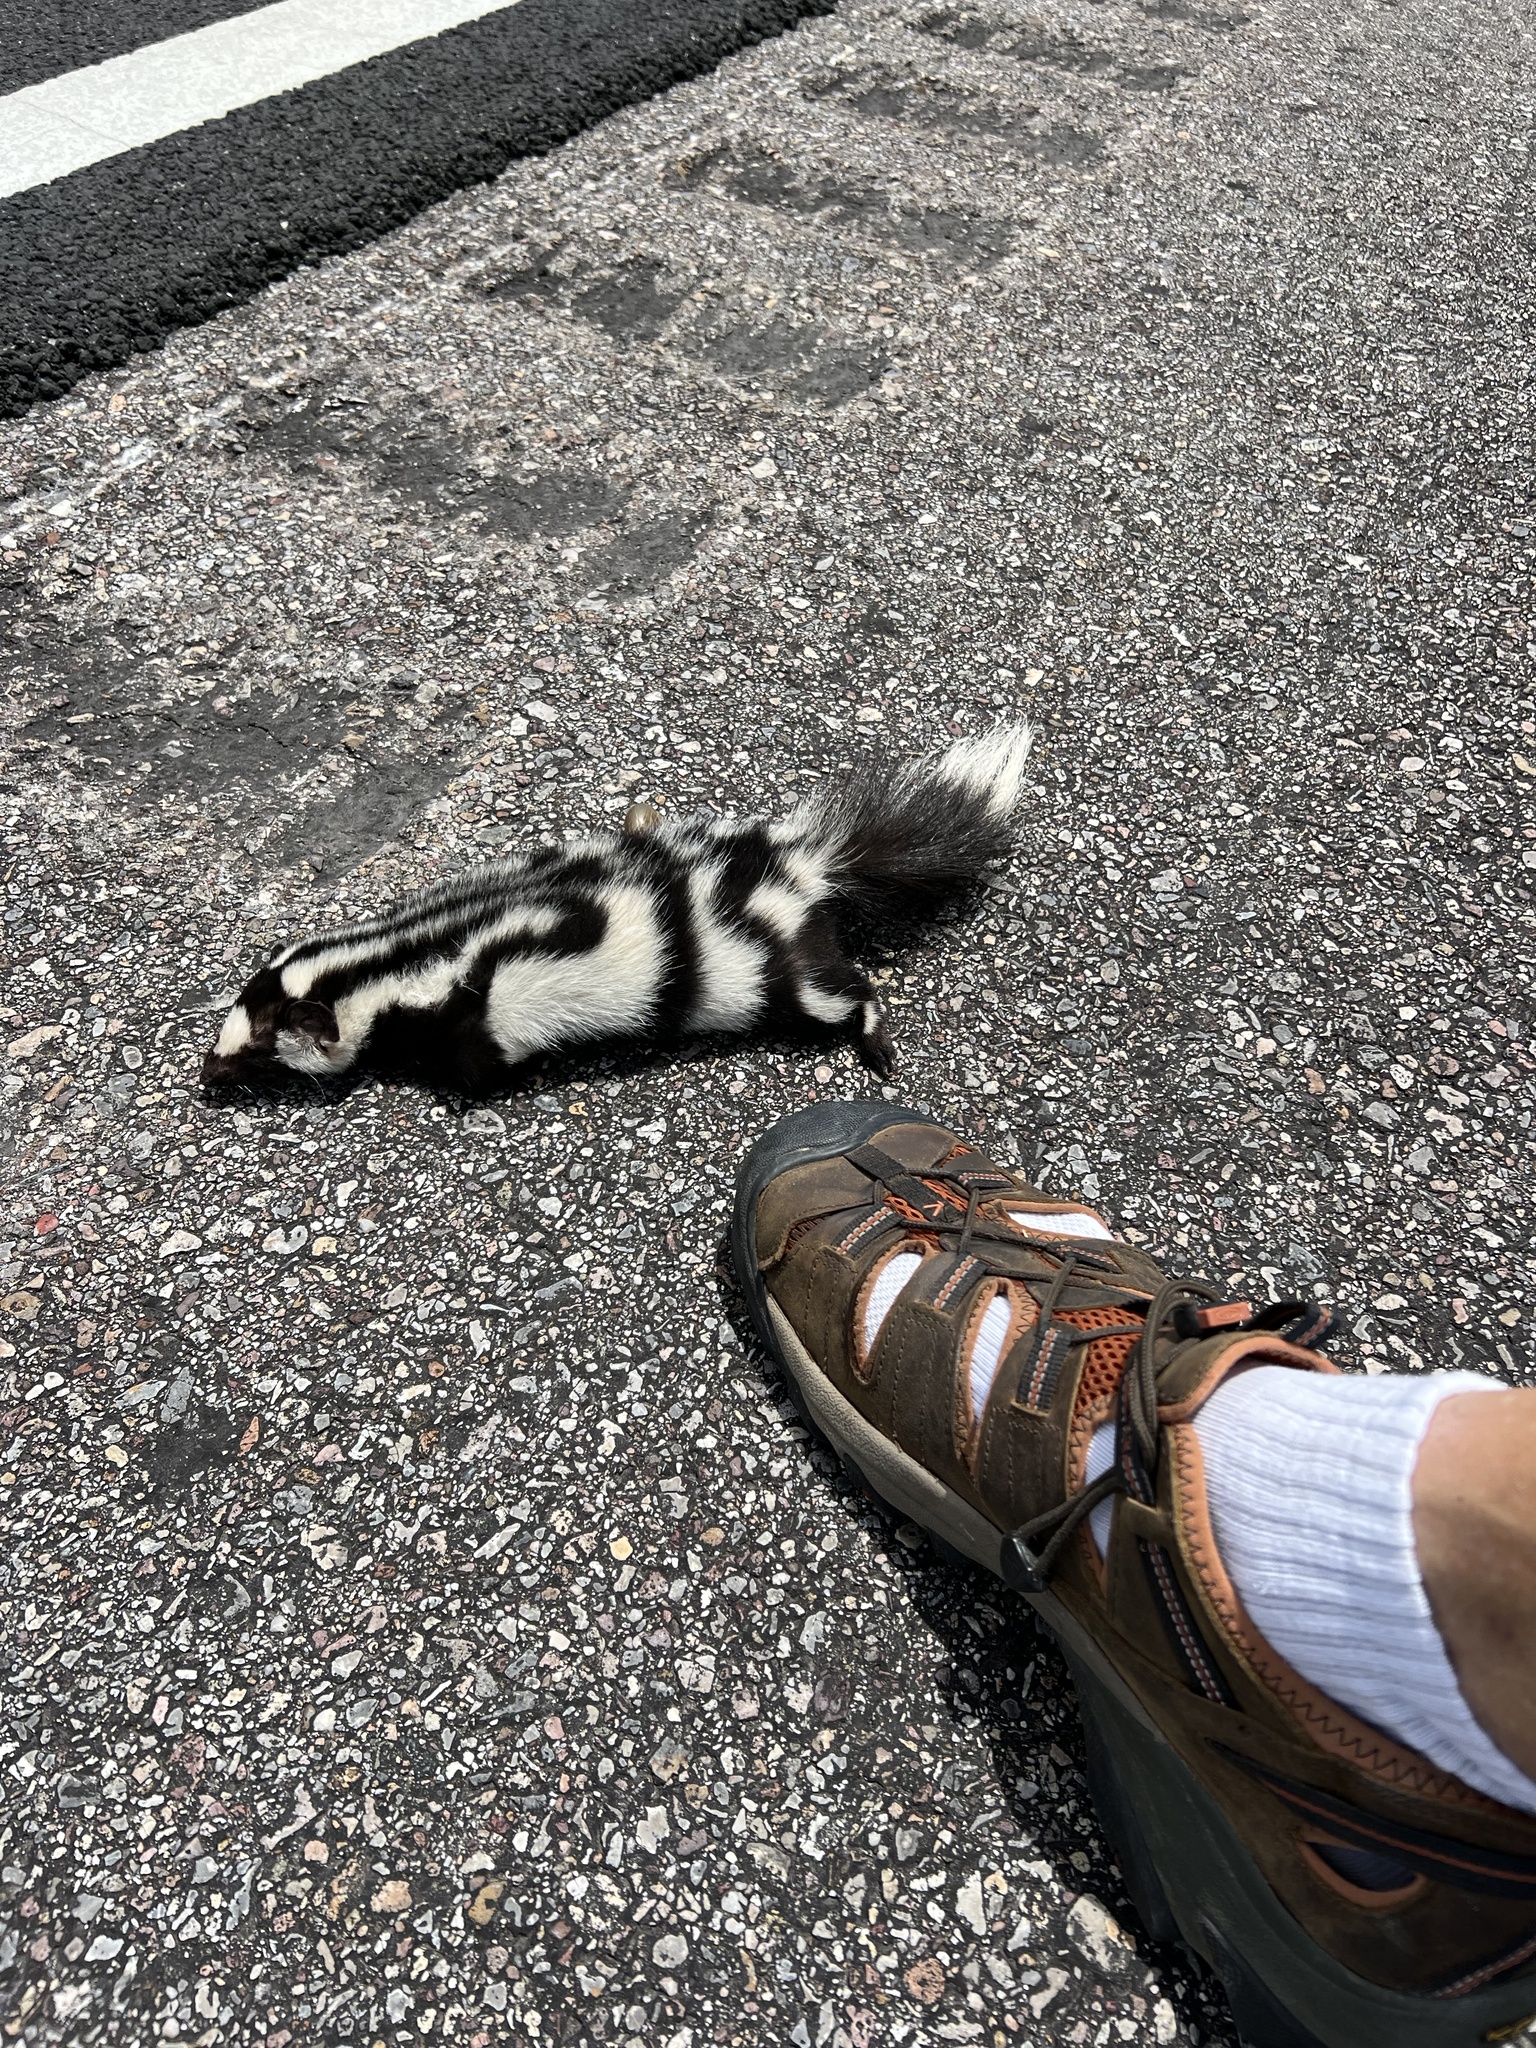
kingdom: Animalia
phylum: Chordata
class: Mammalia
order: Carnivora
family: Mephitidae
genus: Spilogale
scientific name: Spilogale gracilis
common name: Western spotted skunk
